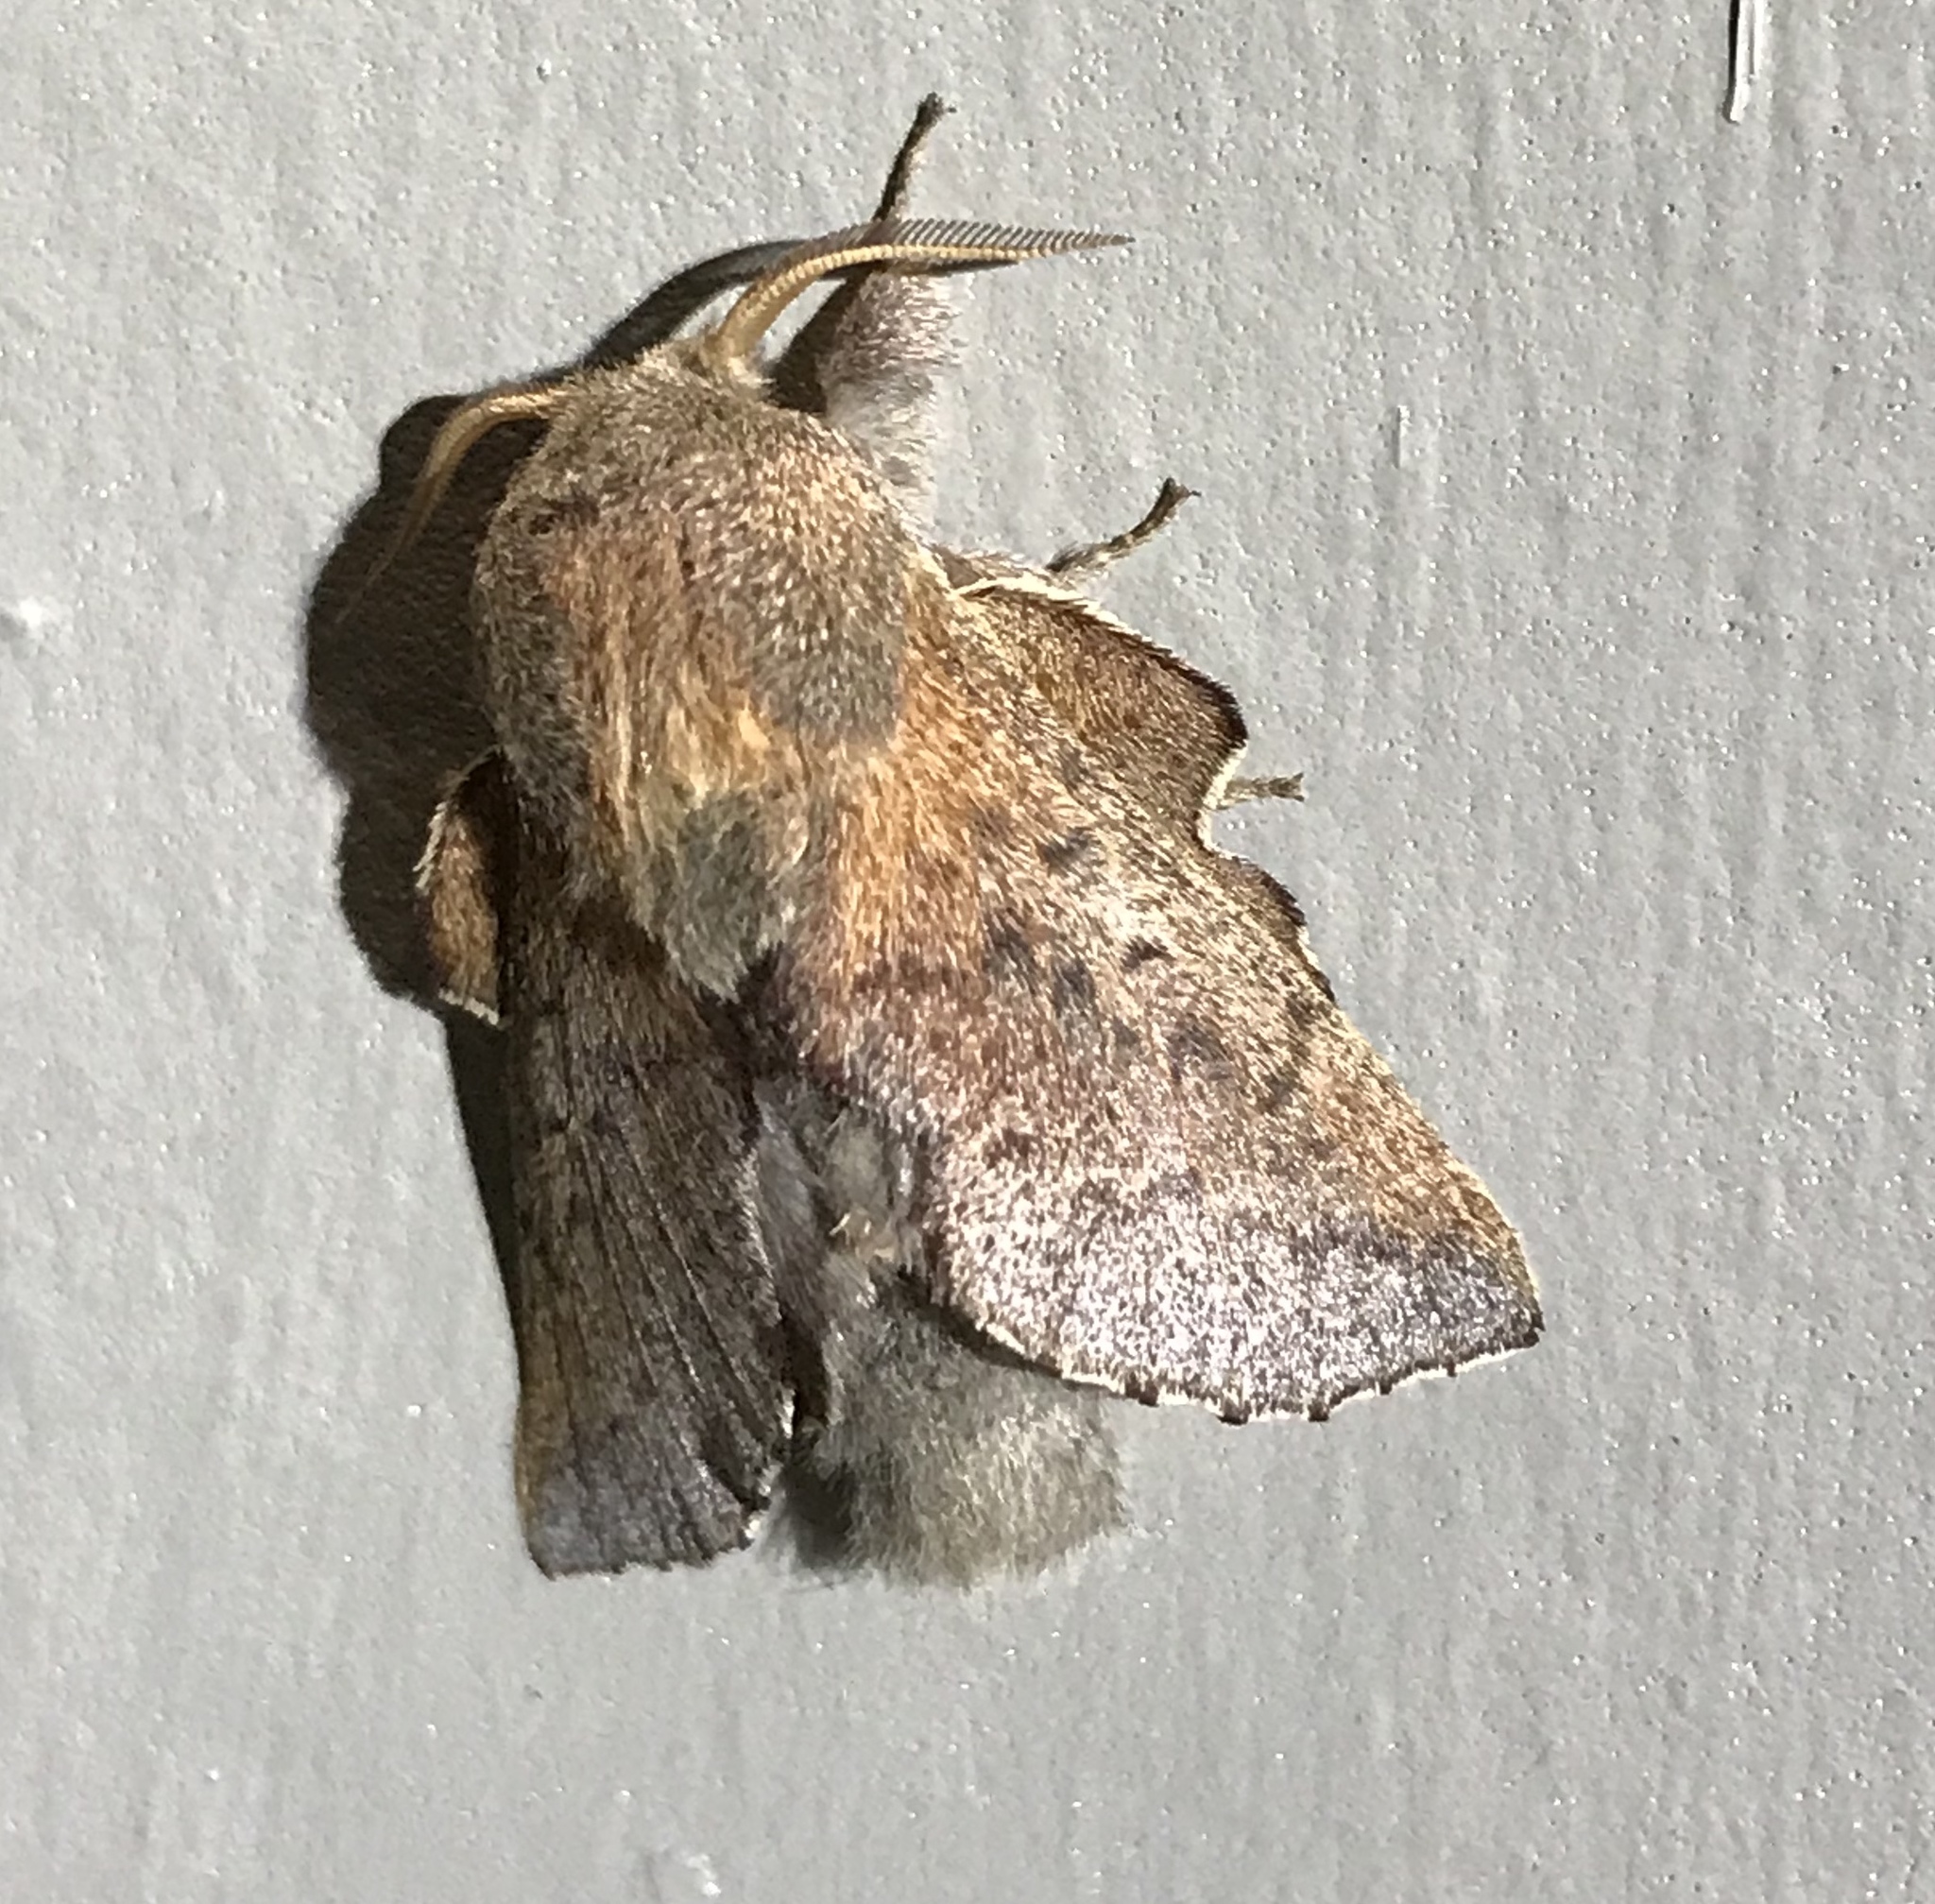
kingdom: Animalia
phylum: Arthropoda
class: Insecta
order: Lepidoptera
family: Lasiocampidae
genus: Phyllodesma
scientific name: Phyllodesma americana
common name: American lappet moth
